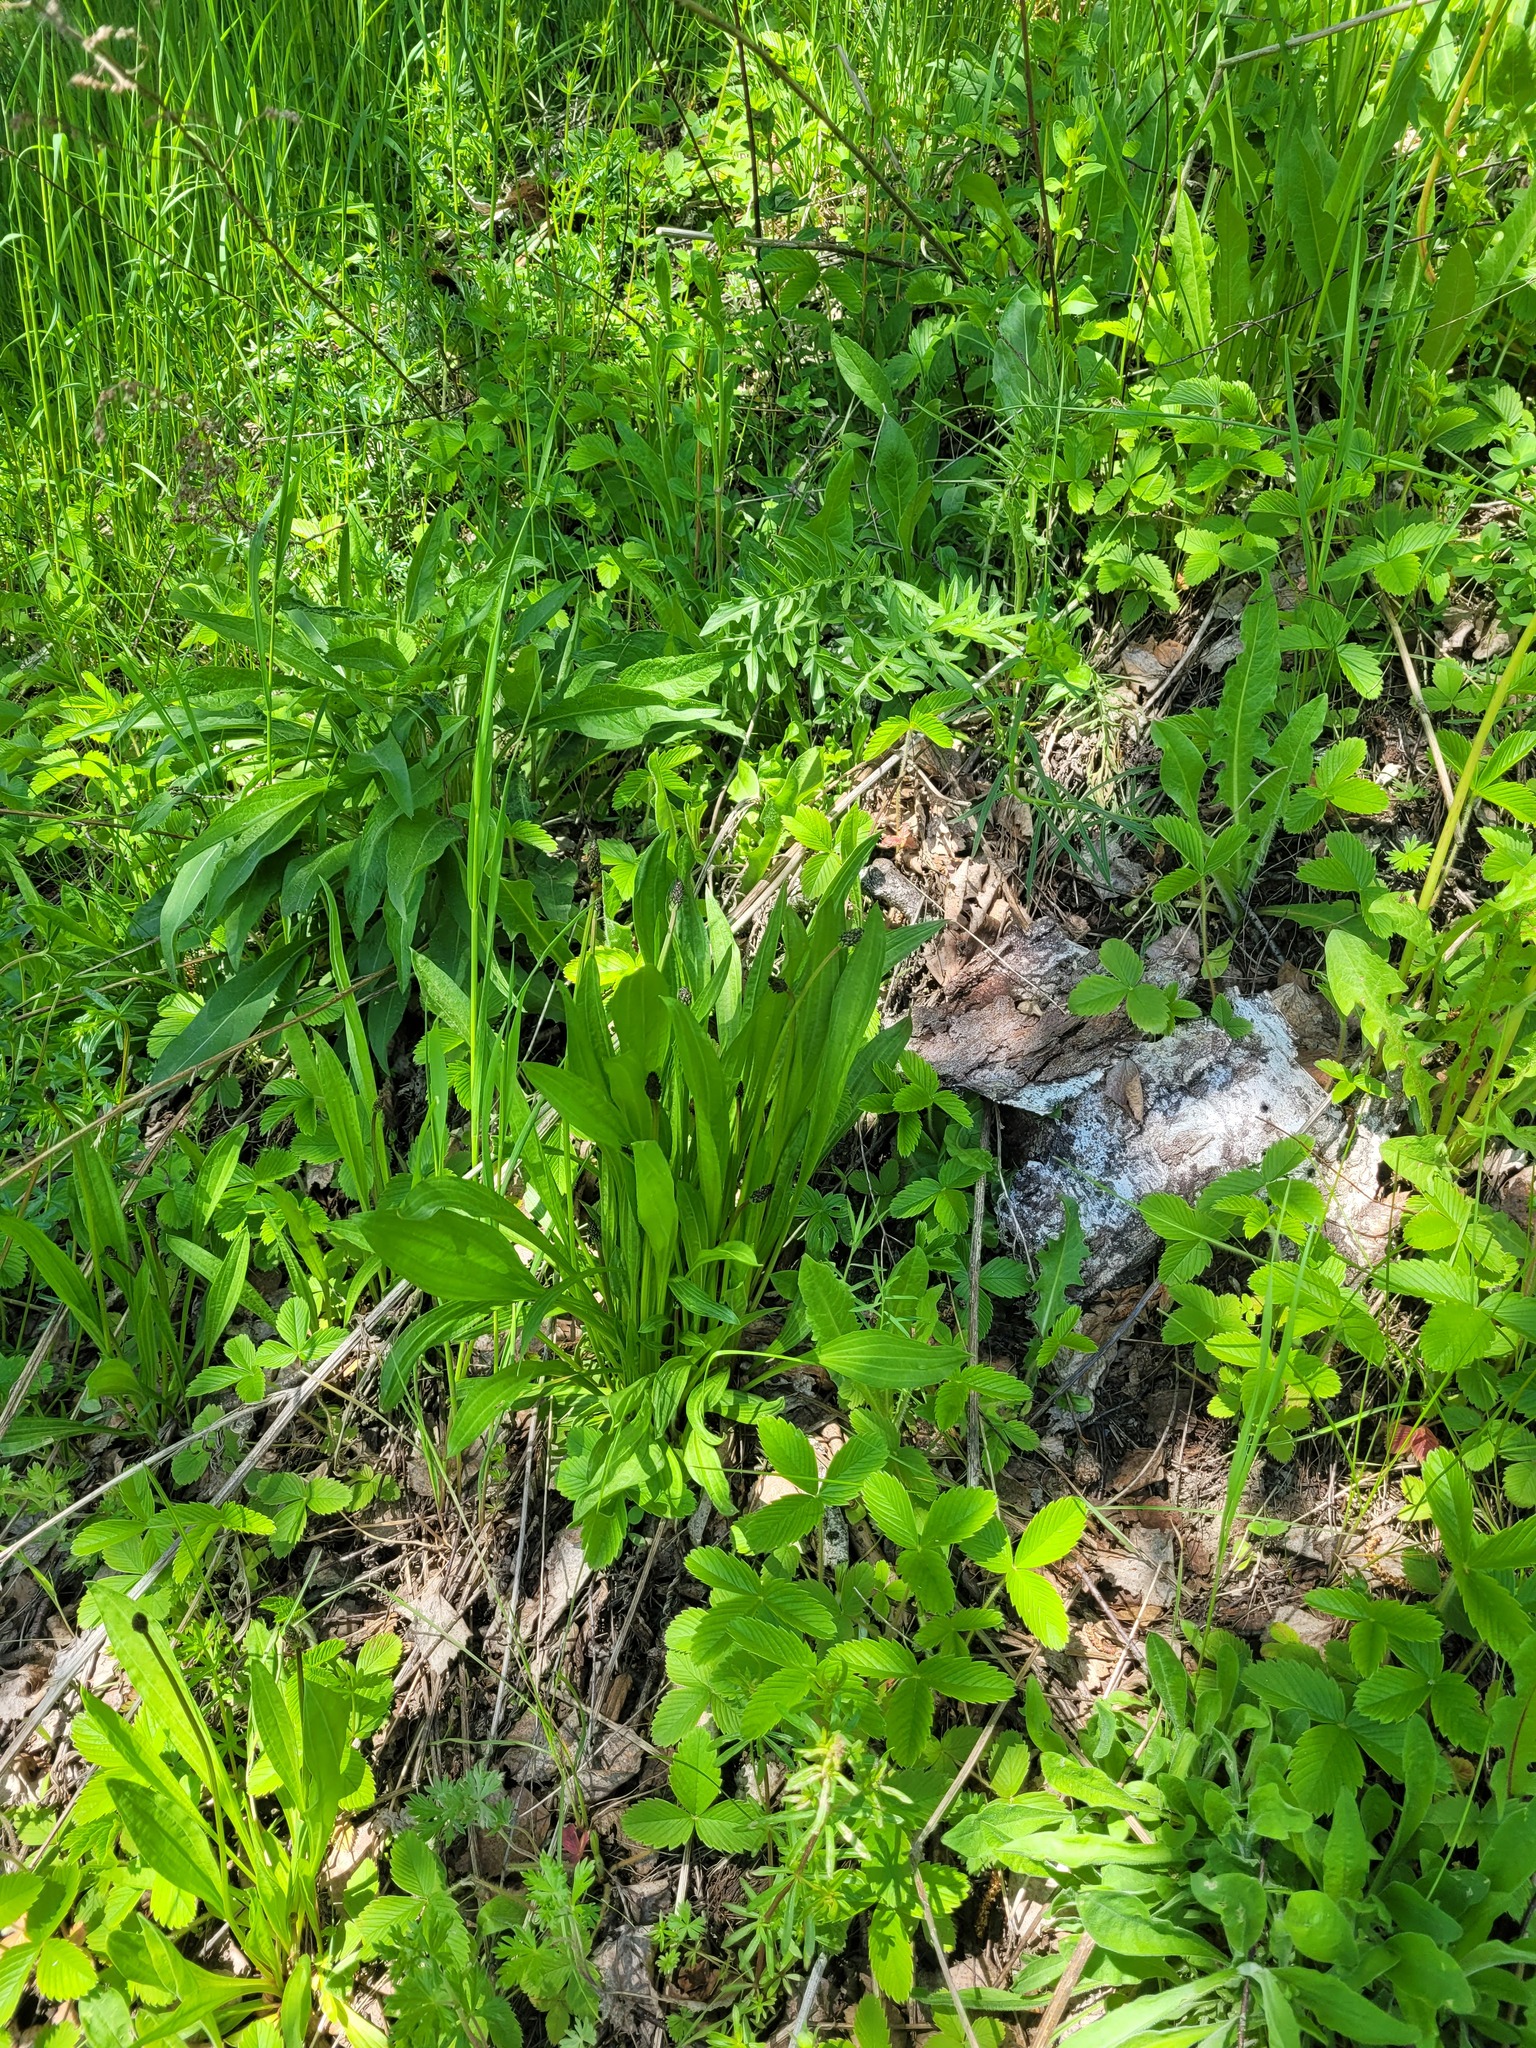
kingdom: Plantae
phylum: Tracheophyta
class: Magnoliopsida
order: Lamiales
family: Plantaginaceae
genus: Plantago
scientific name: Plantago lanceolata
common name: Ribwort plantain
